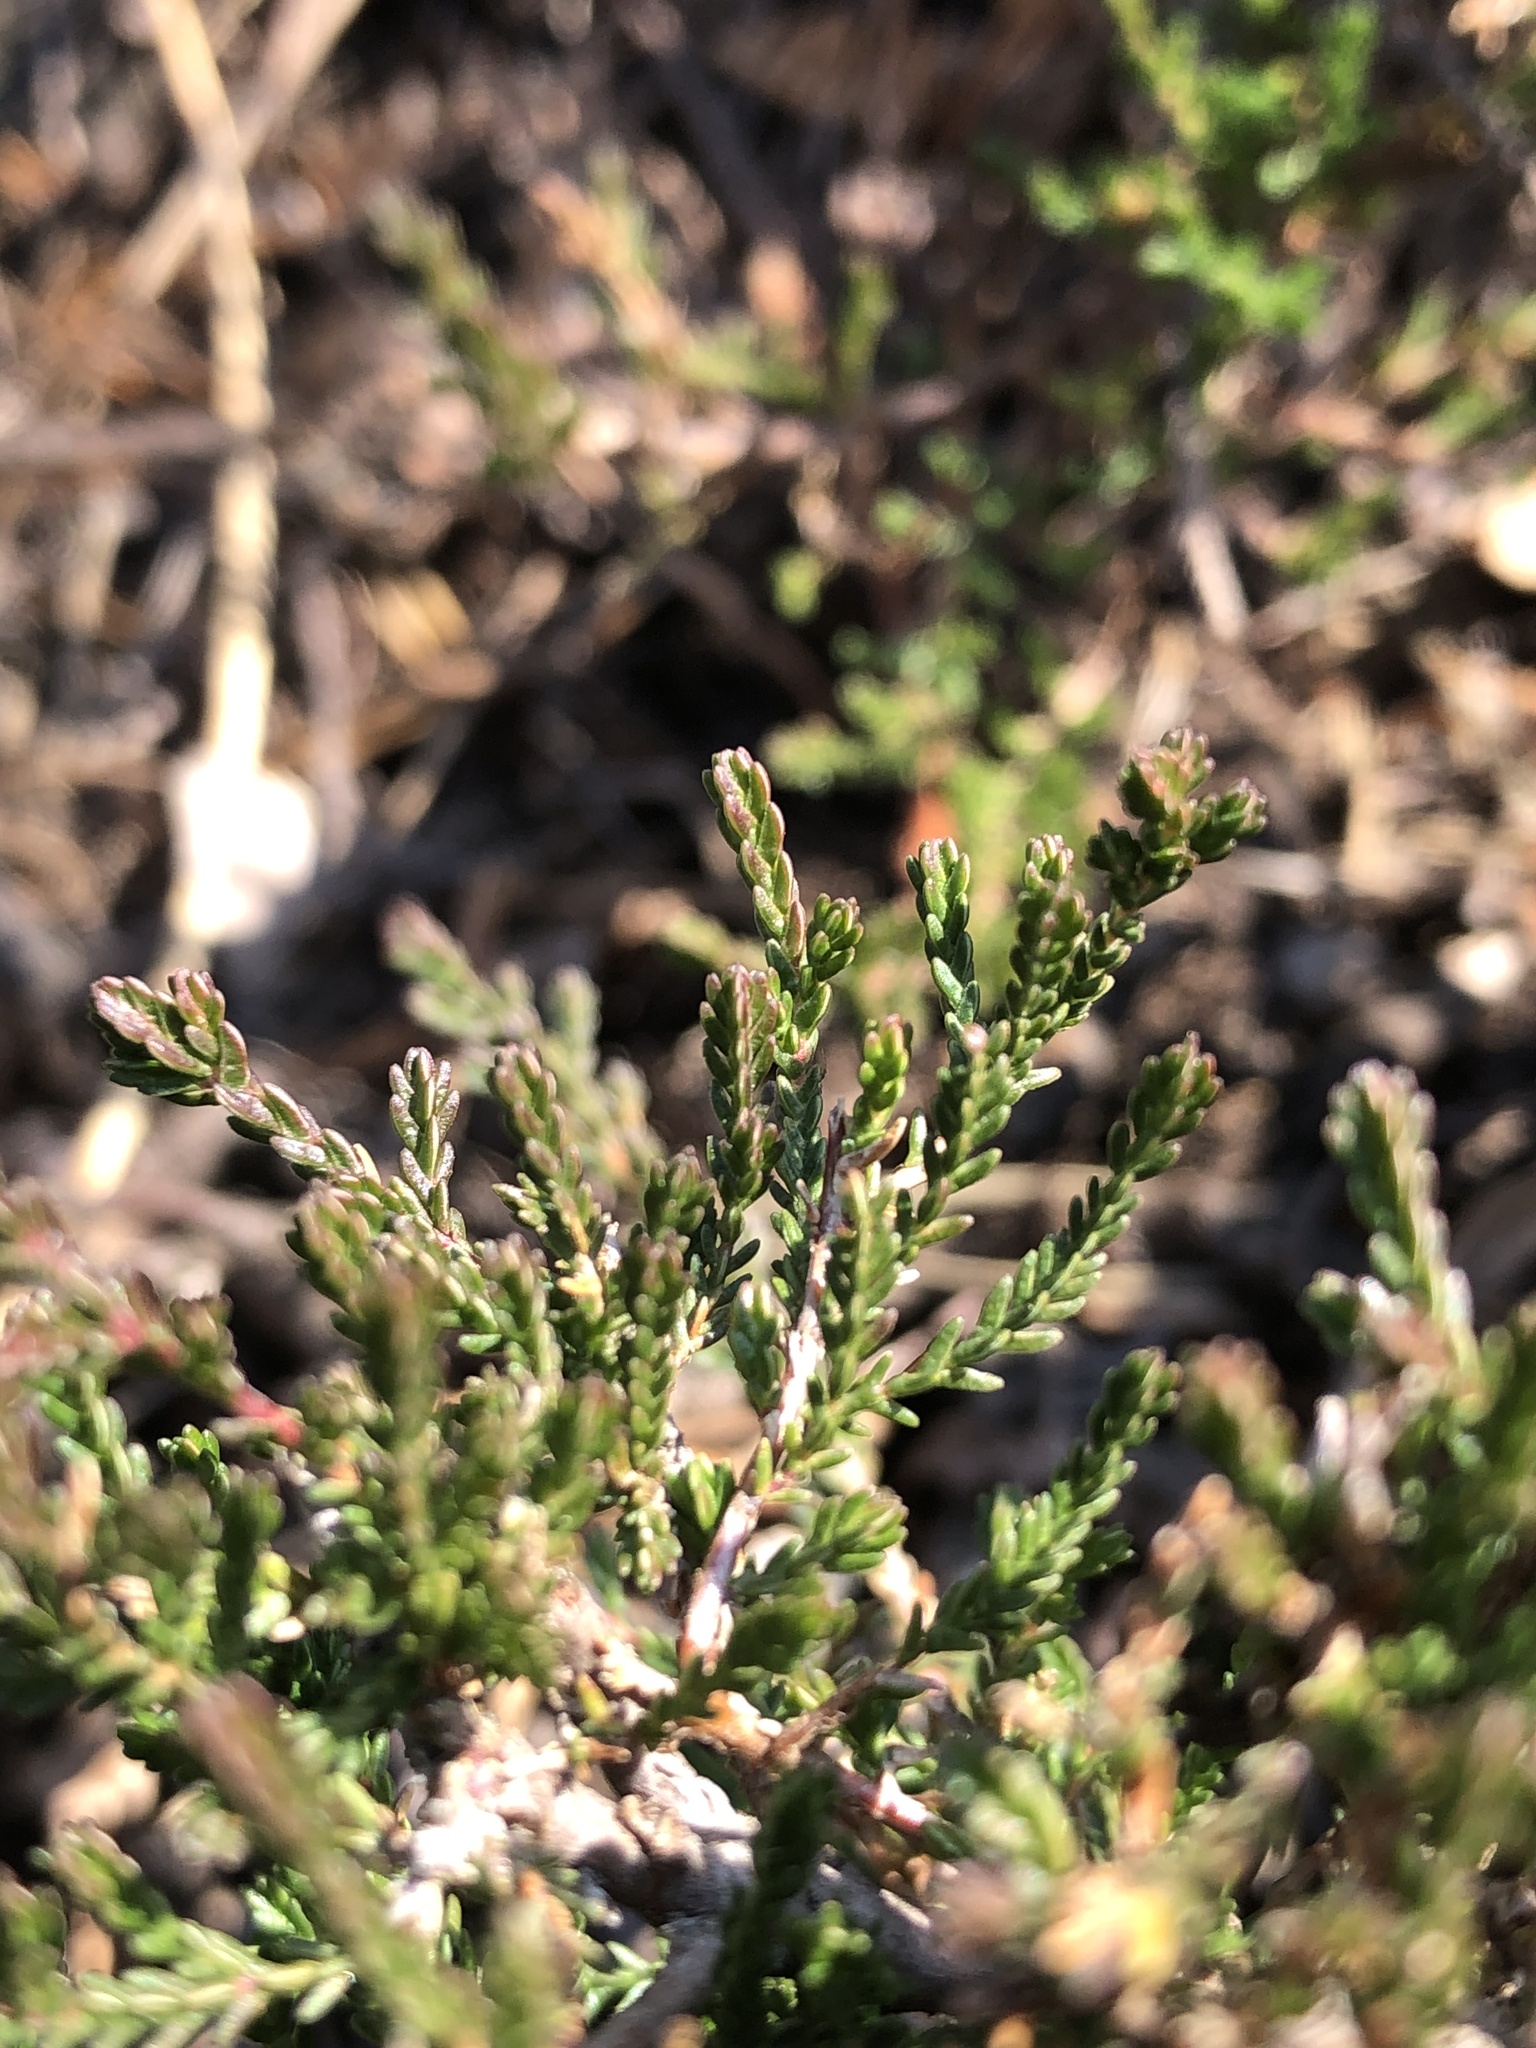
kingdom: Plantae
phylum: Tracheophyta
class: Magnoliopsida
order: Ericales
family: Ericaceae
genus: Calluna
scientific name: Calluna vulgaris
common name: Heather
